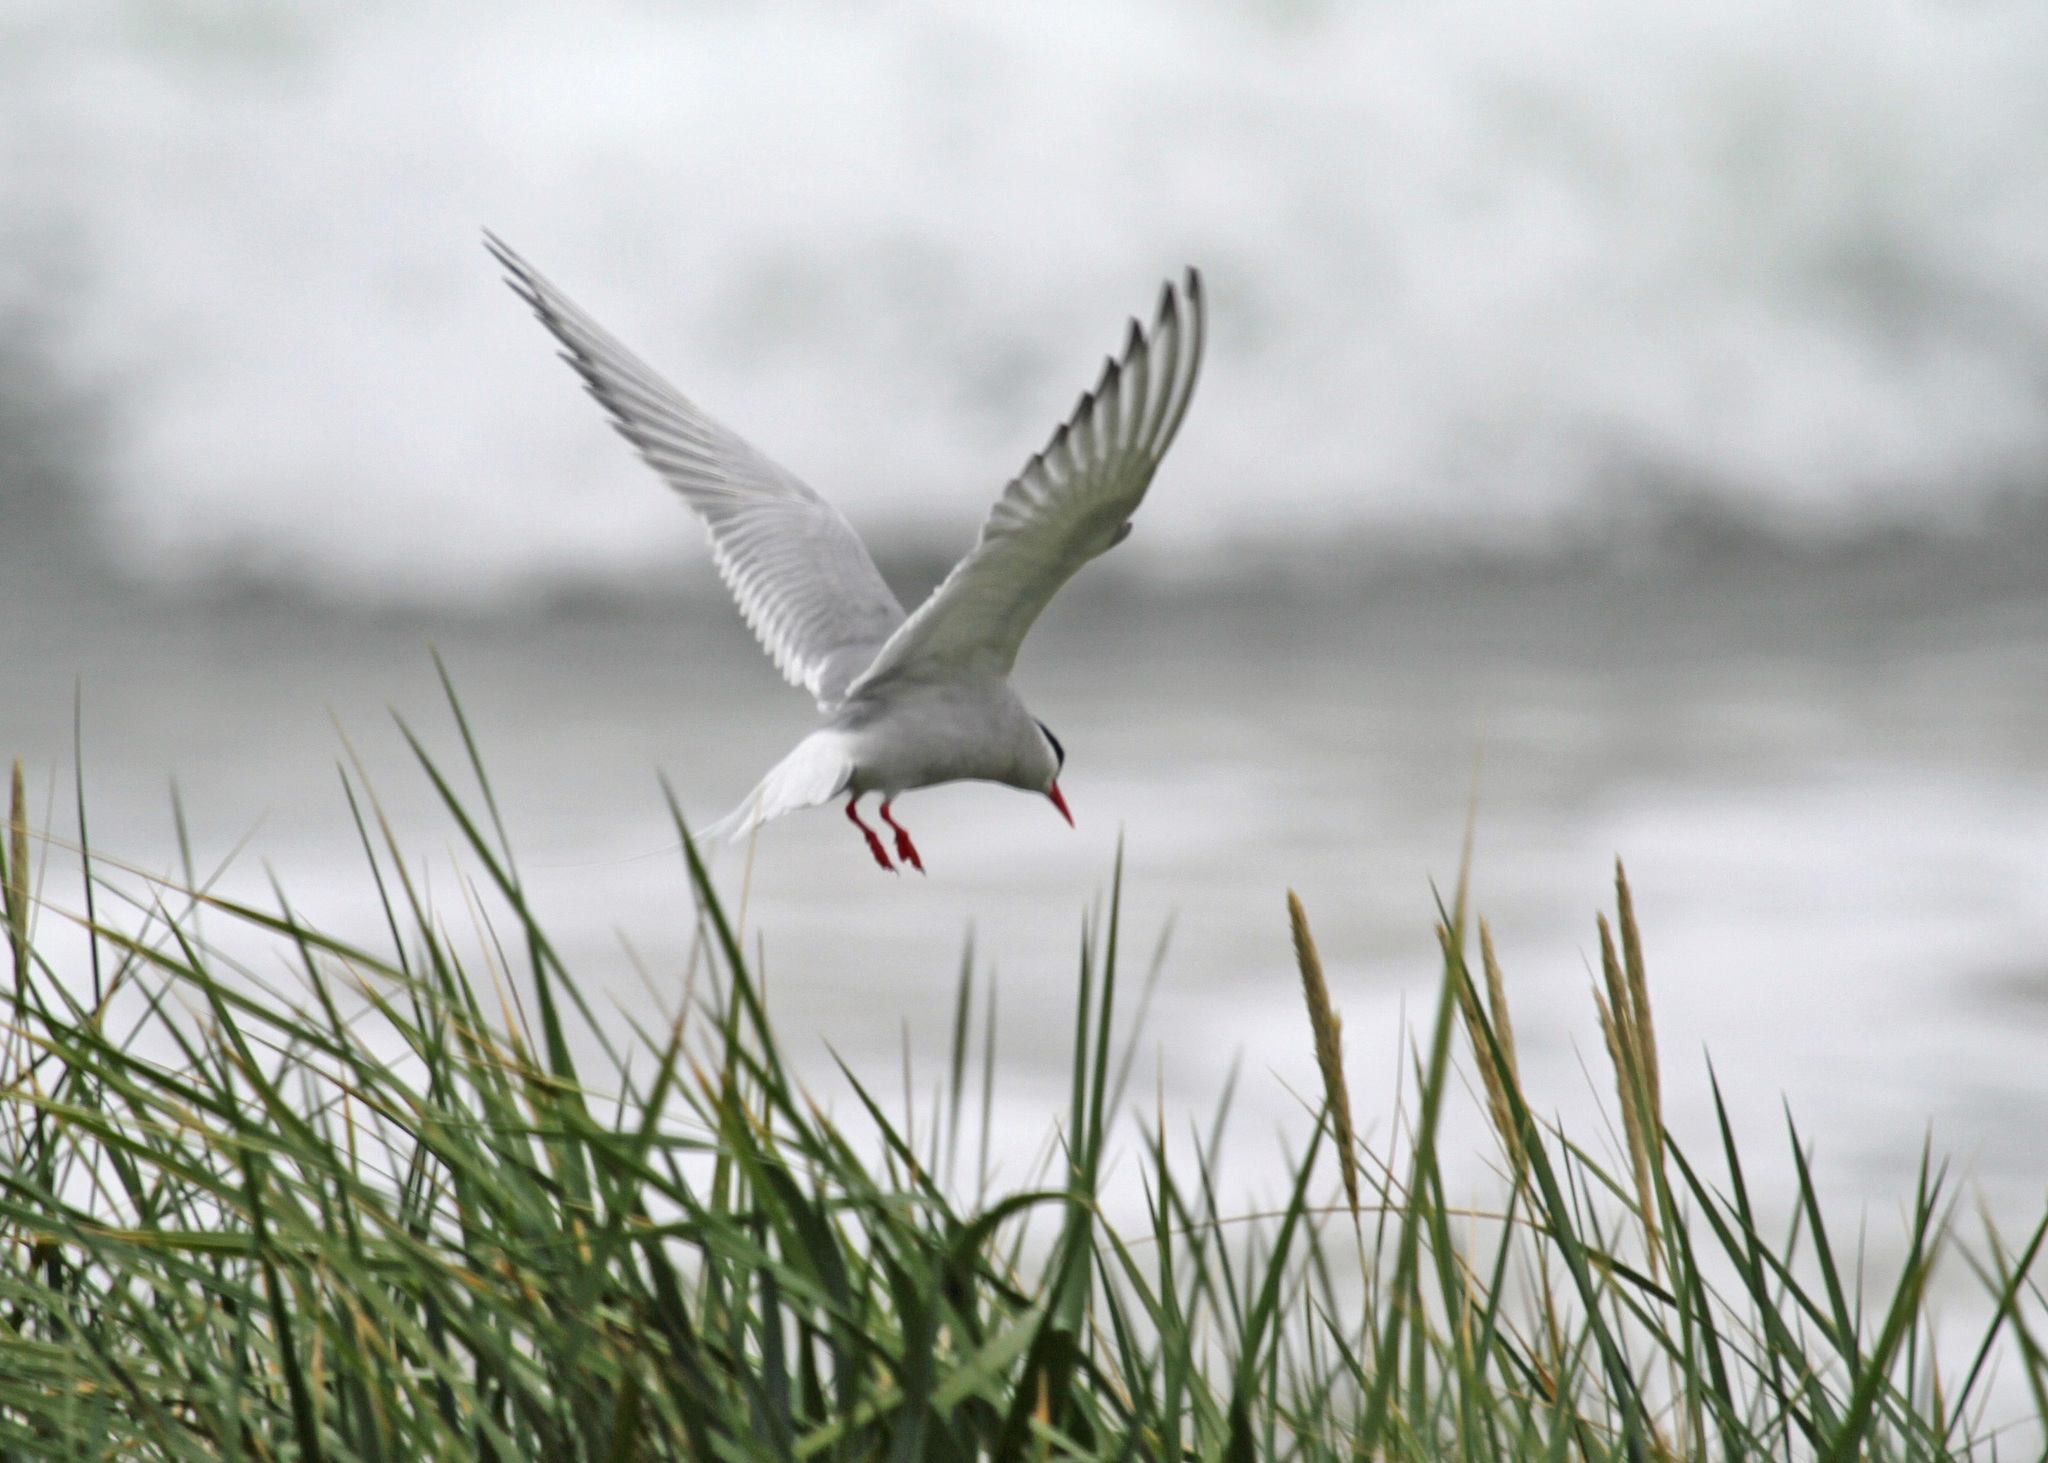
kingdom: Animalia
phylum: Chordata
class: Aves
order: Charadriiformes
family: Laridae
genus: Sterna
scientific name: Sterna paradisaea
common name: Arctic tern
